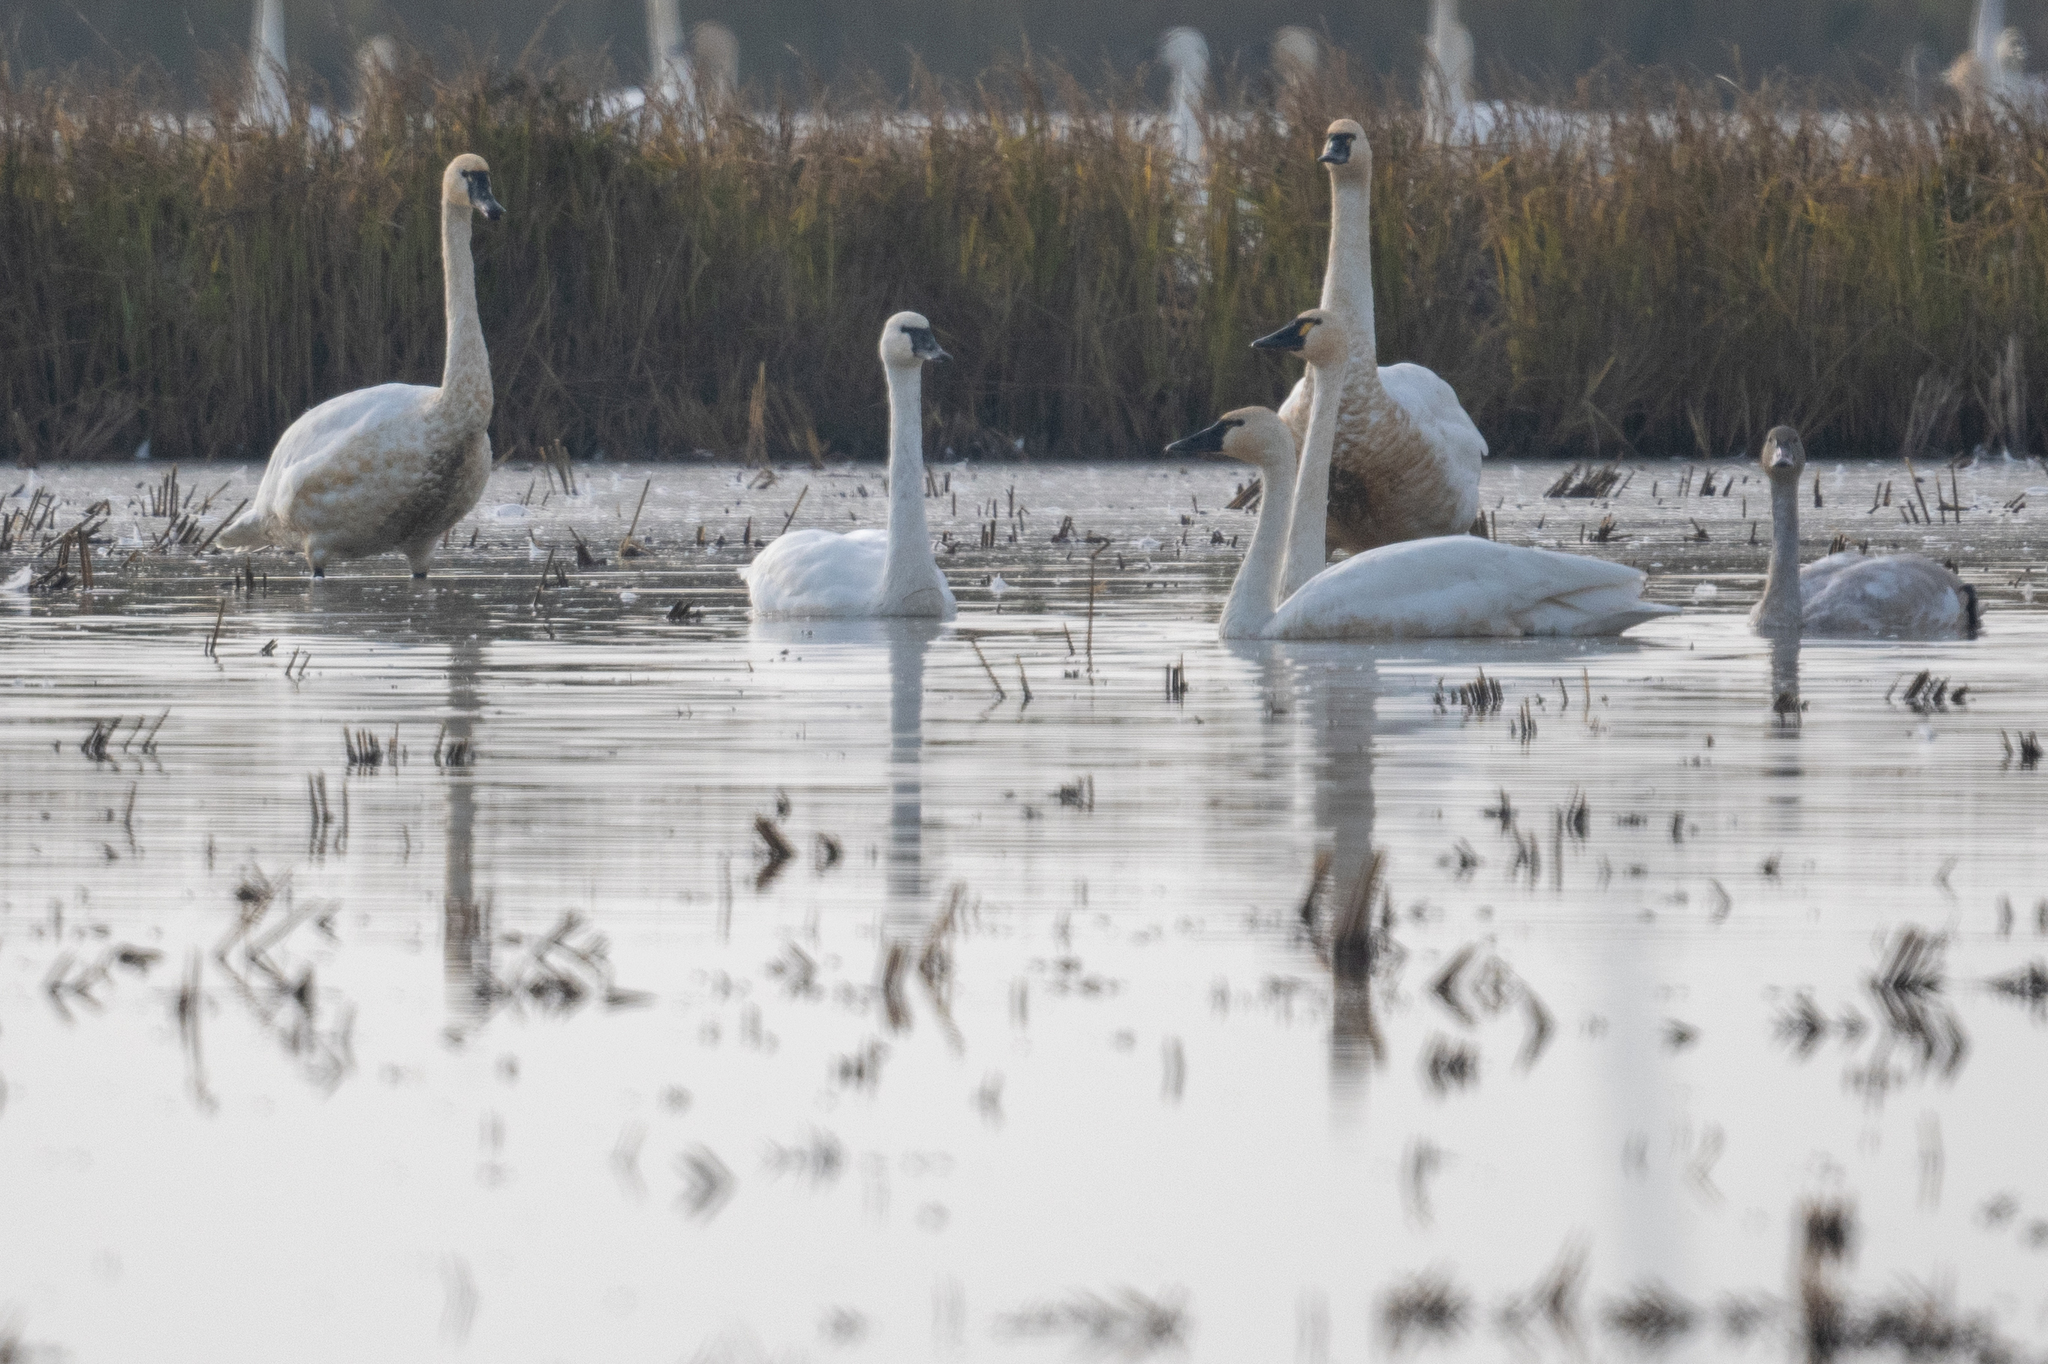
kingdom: Animalia
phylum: Chordata
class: Aves
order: Anseriformes
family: Anatidae
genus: Cygnus
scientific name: Cygnus columbianus
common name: Tundra swan
